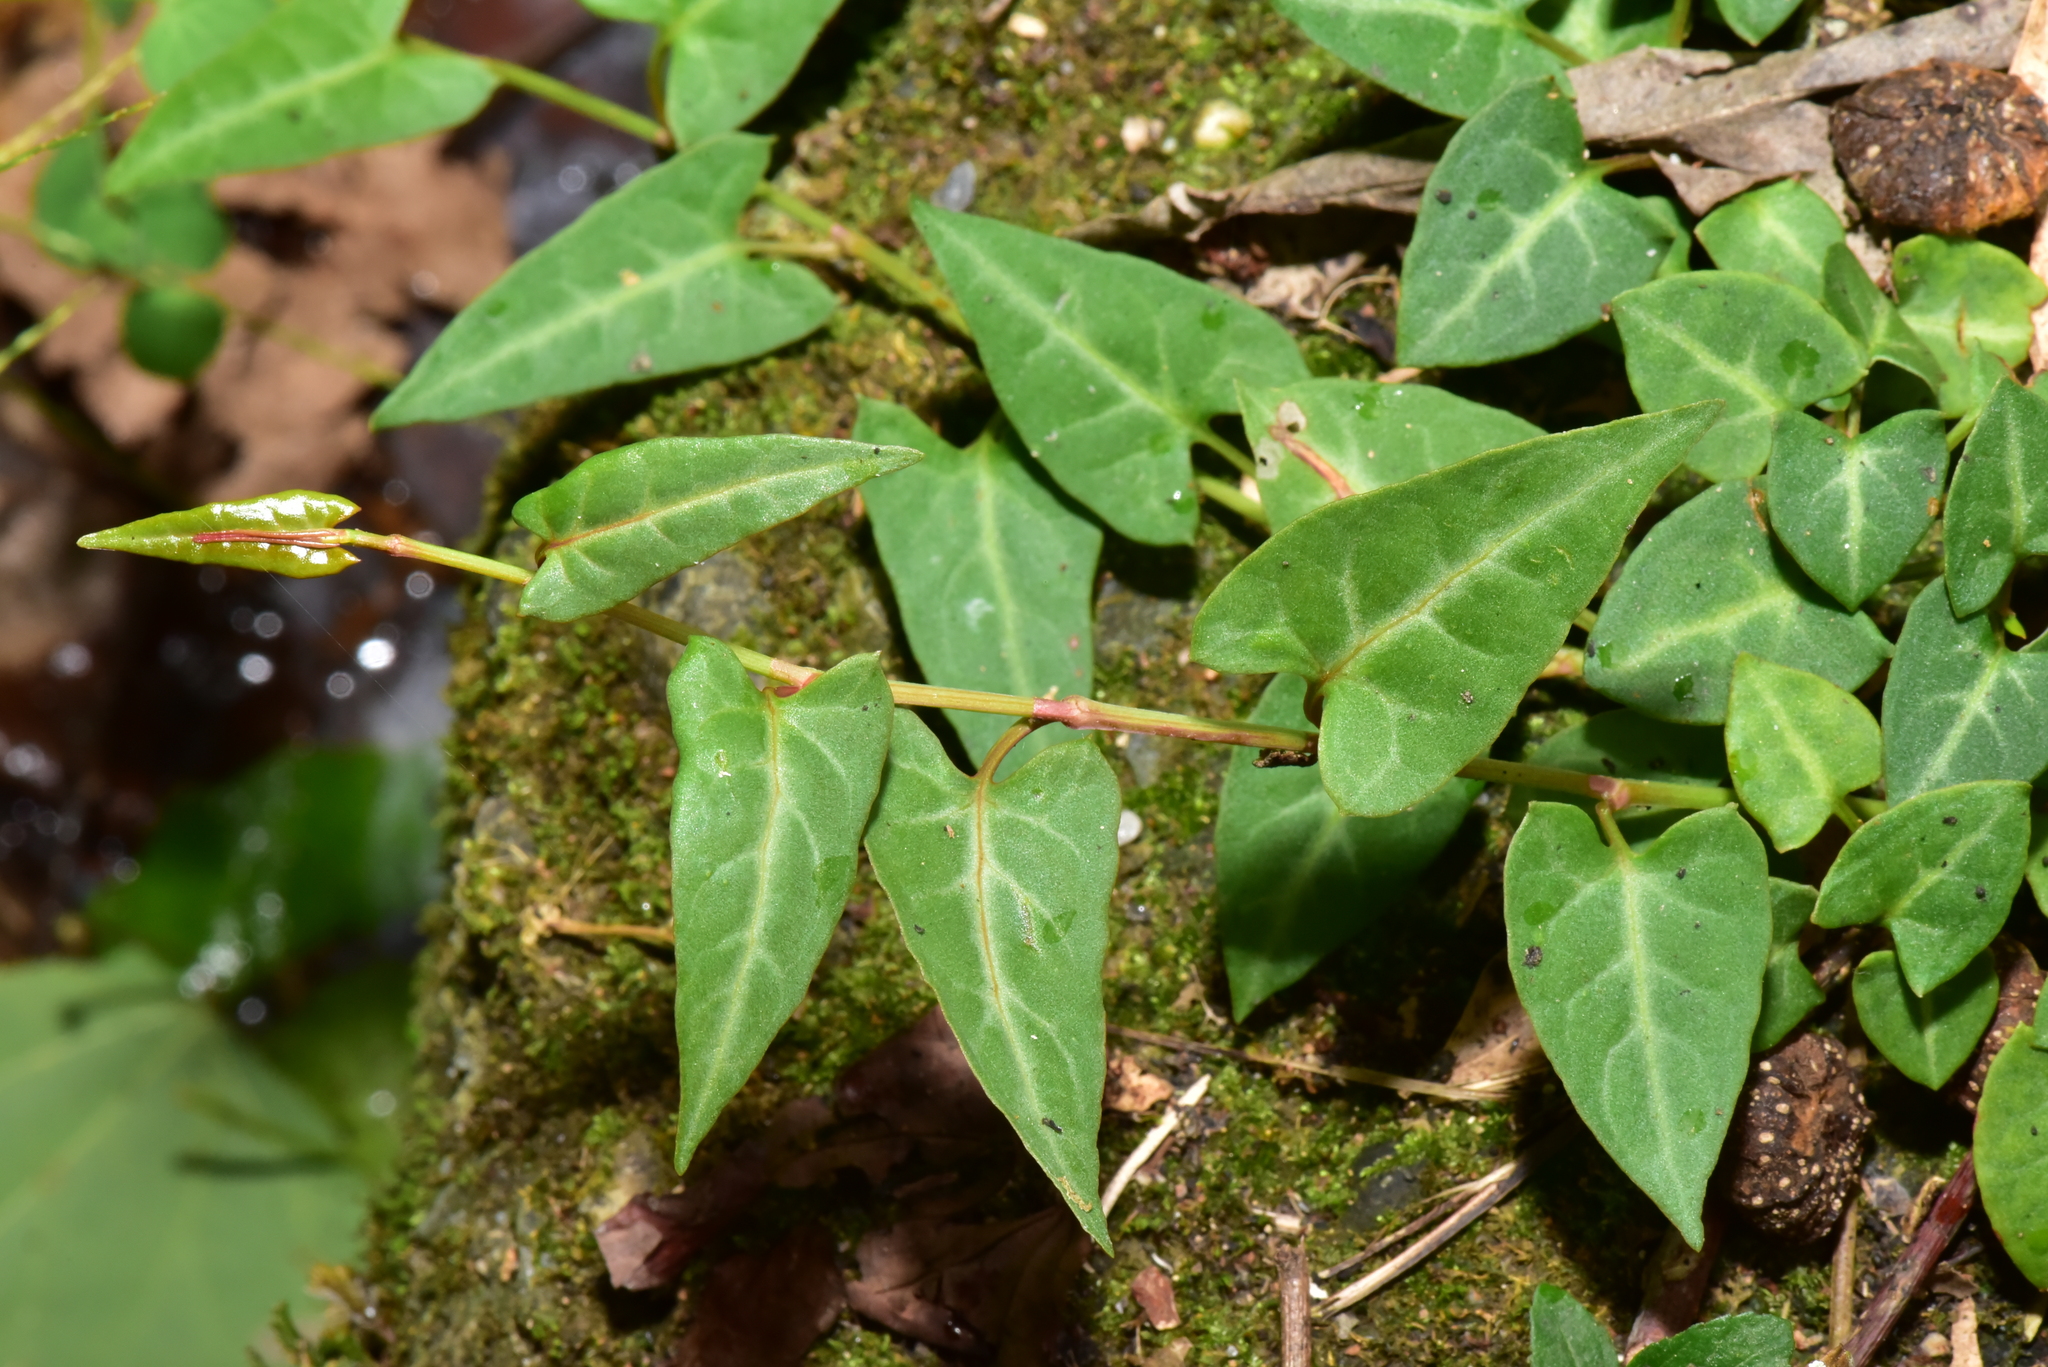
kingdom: Plantae
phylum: Tracheophyta
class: Magnoliopsida
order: Caryophyllales
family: Polygonaceae
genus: Reynoutria
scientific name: Reynoutria multiflora
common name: Chinese fleeceflower
